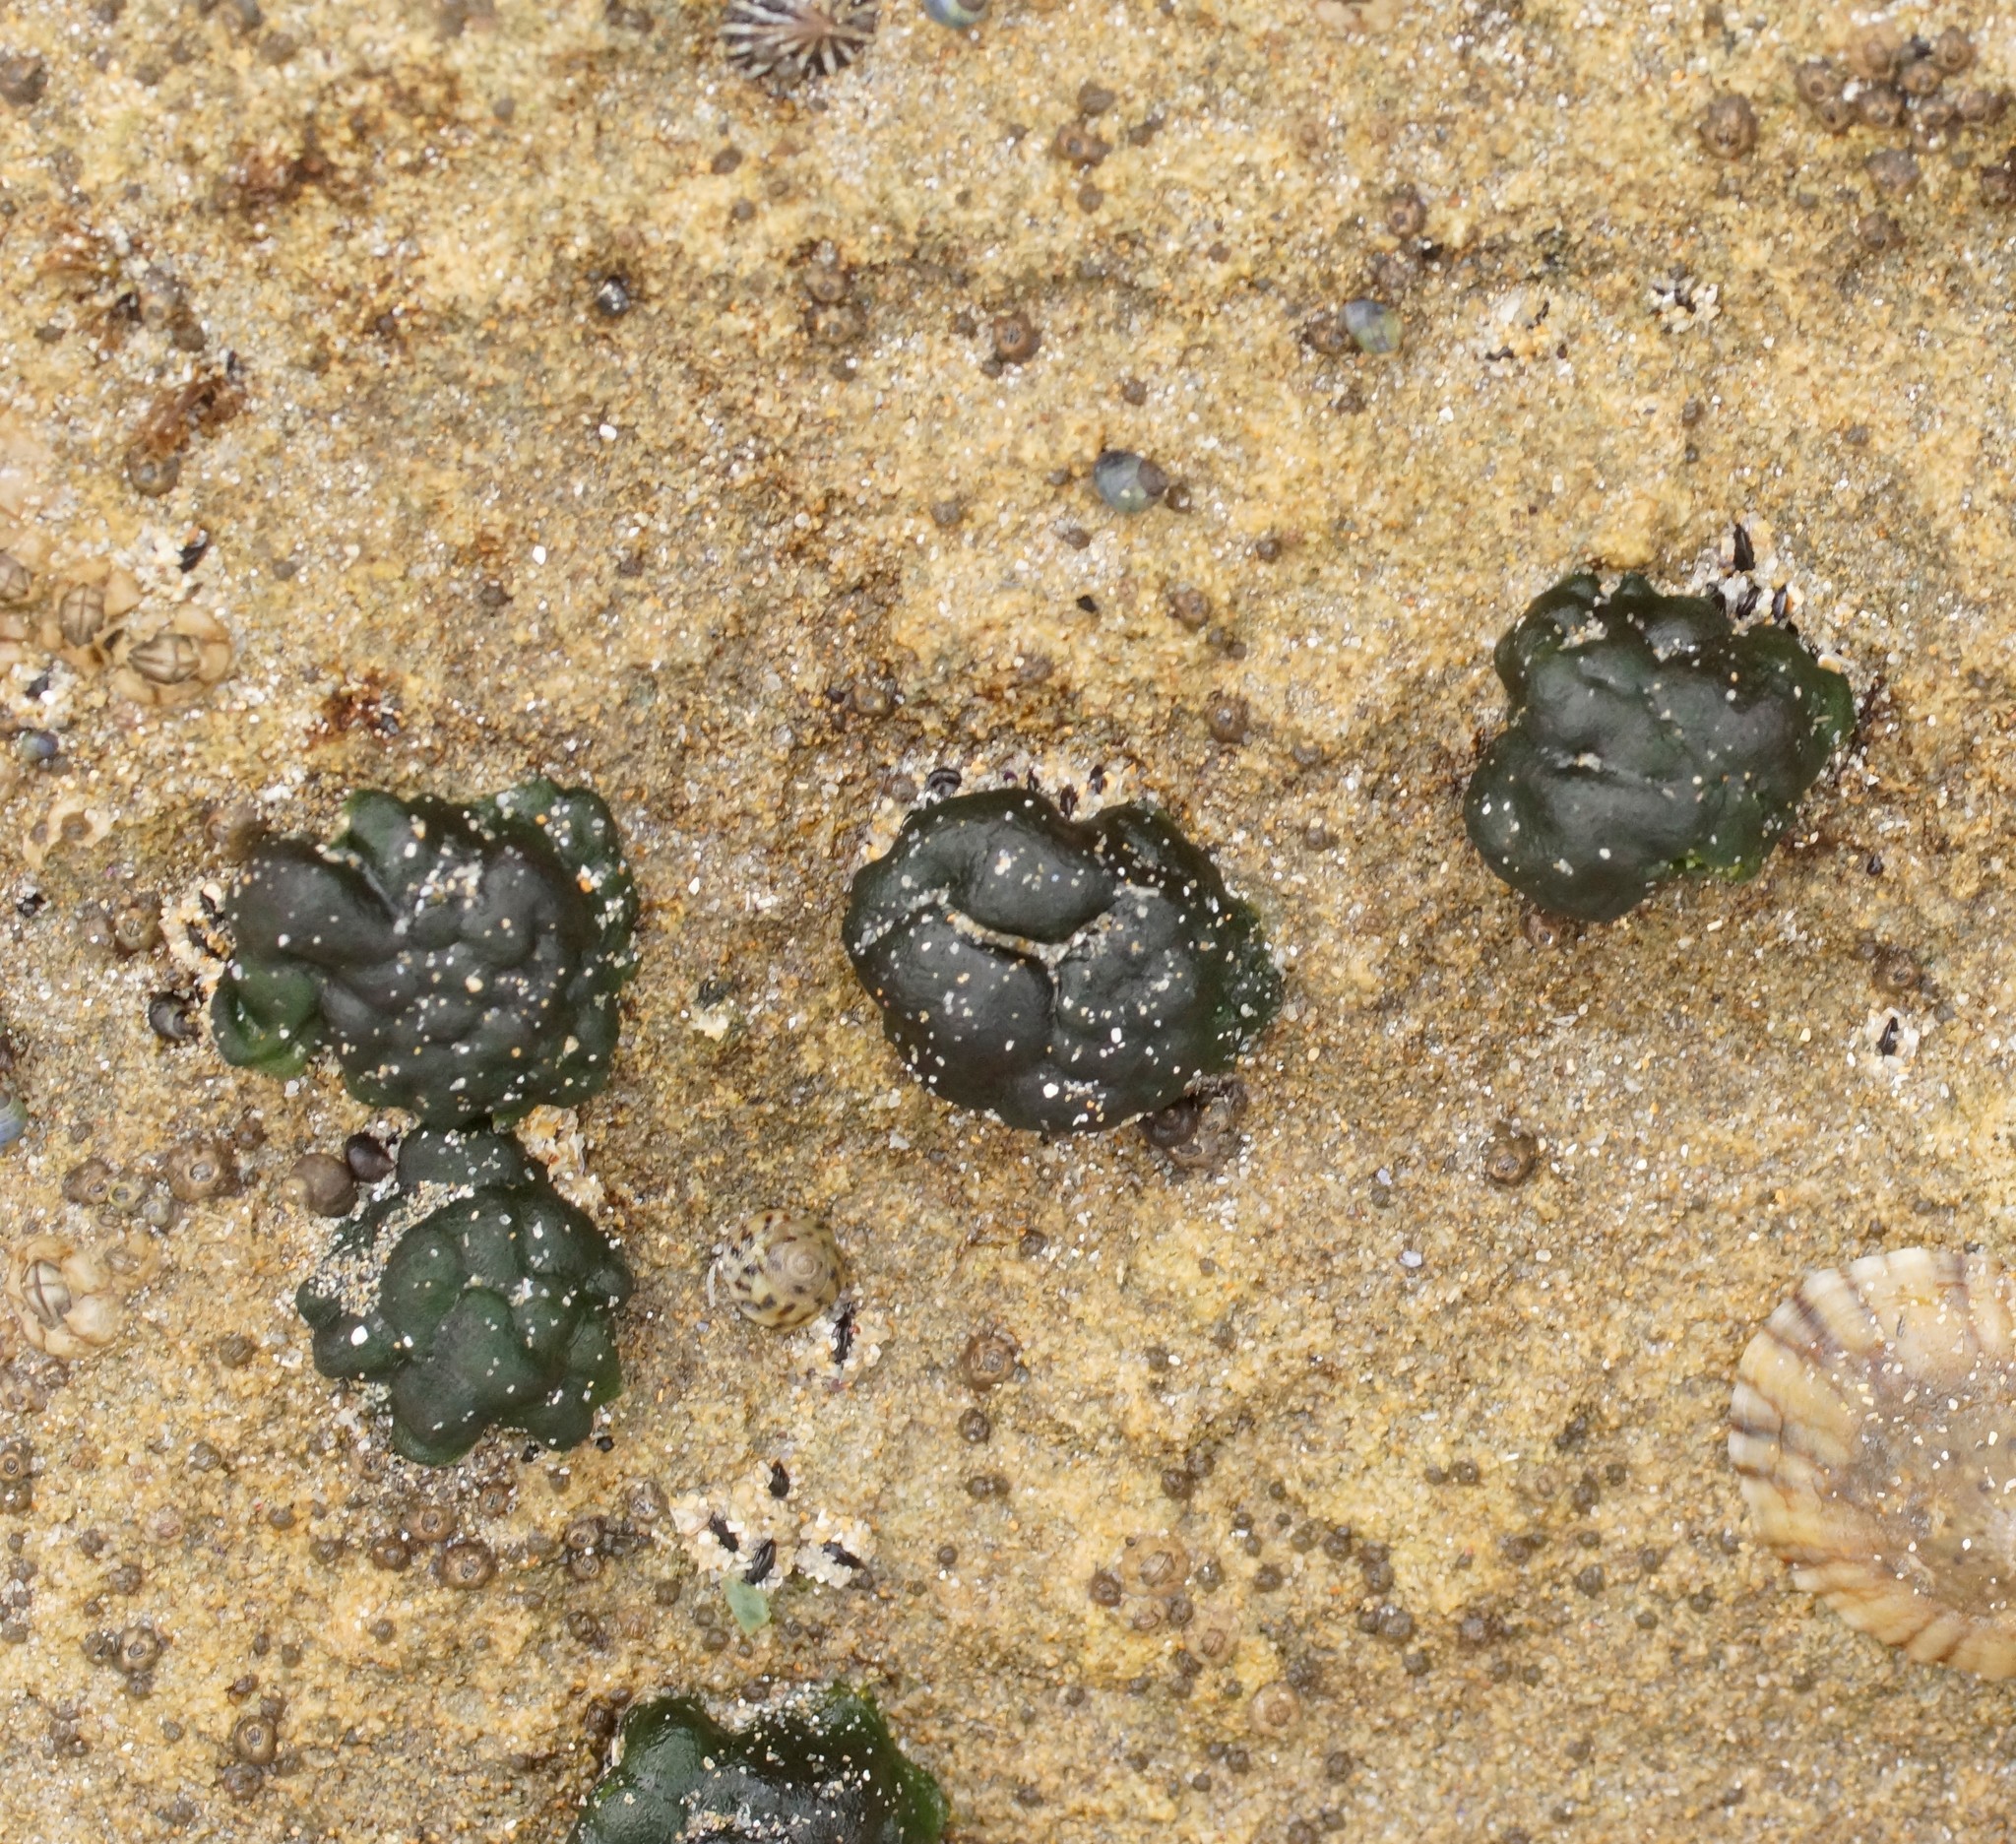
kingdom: Bacteria
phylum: Cyanobacteria
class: Cyanobacteriia
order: Cyanobacteriales
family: Rivulariaceae
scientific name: Rivulariaceae
